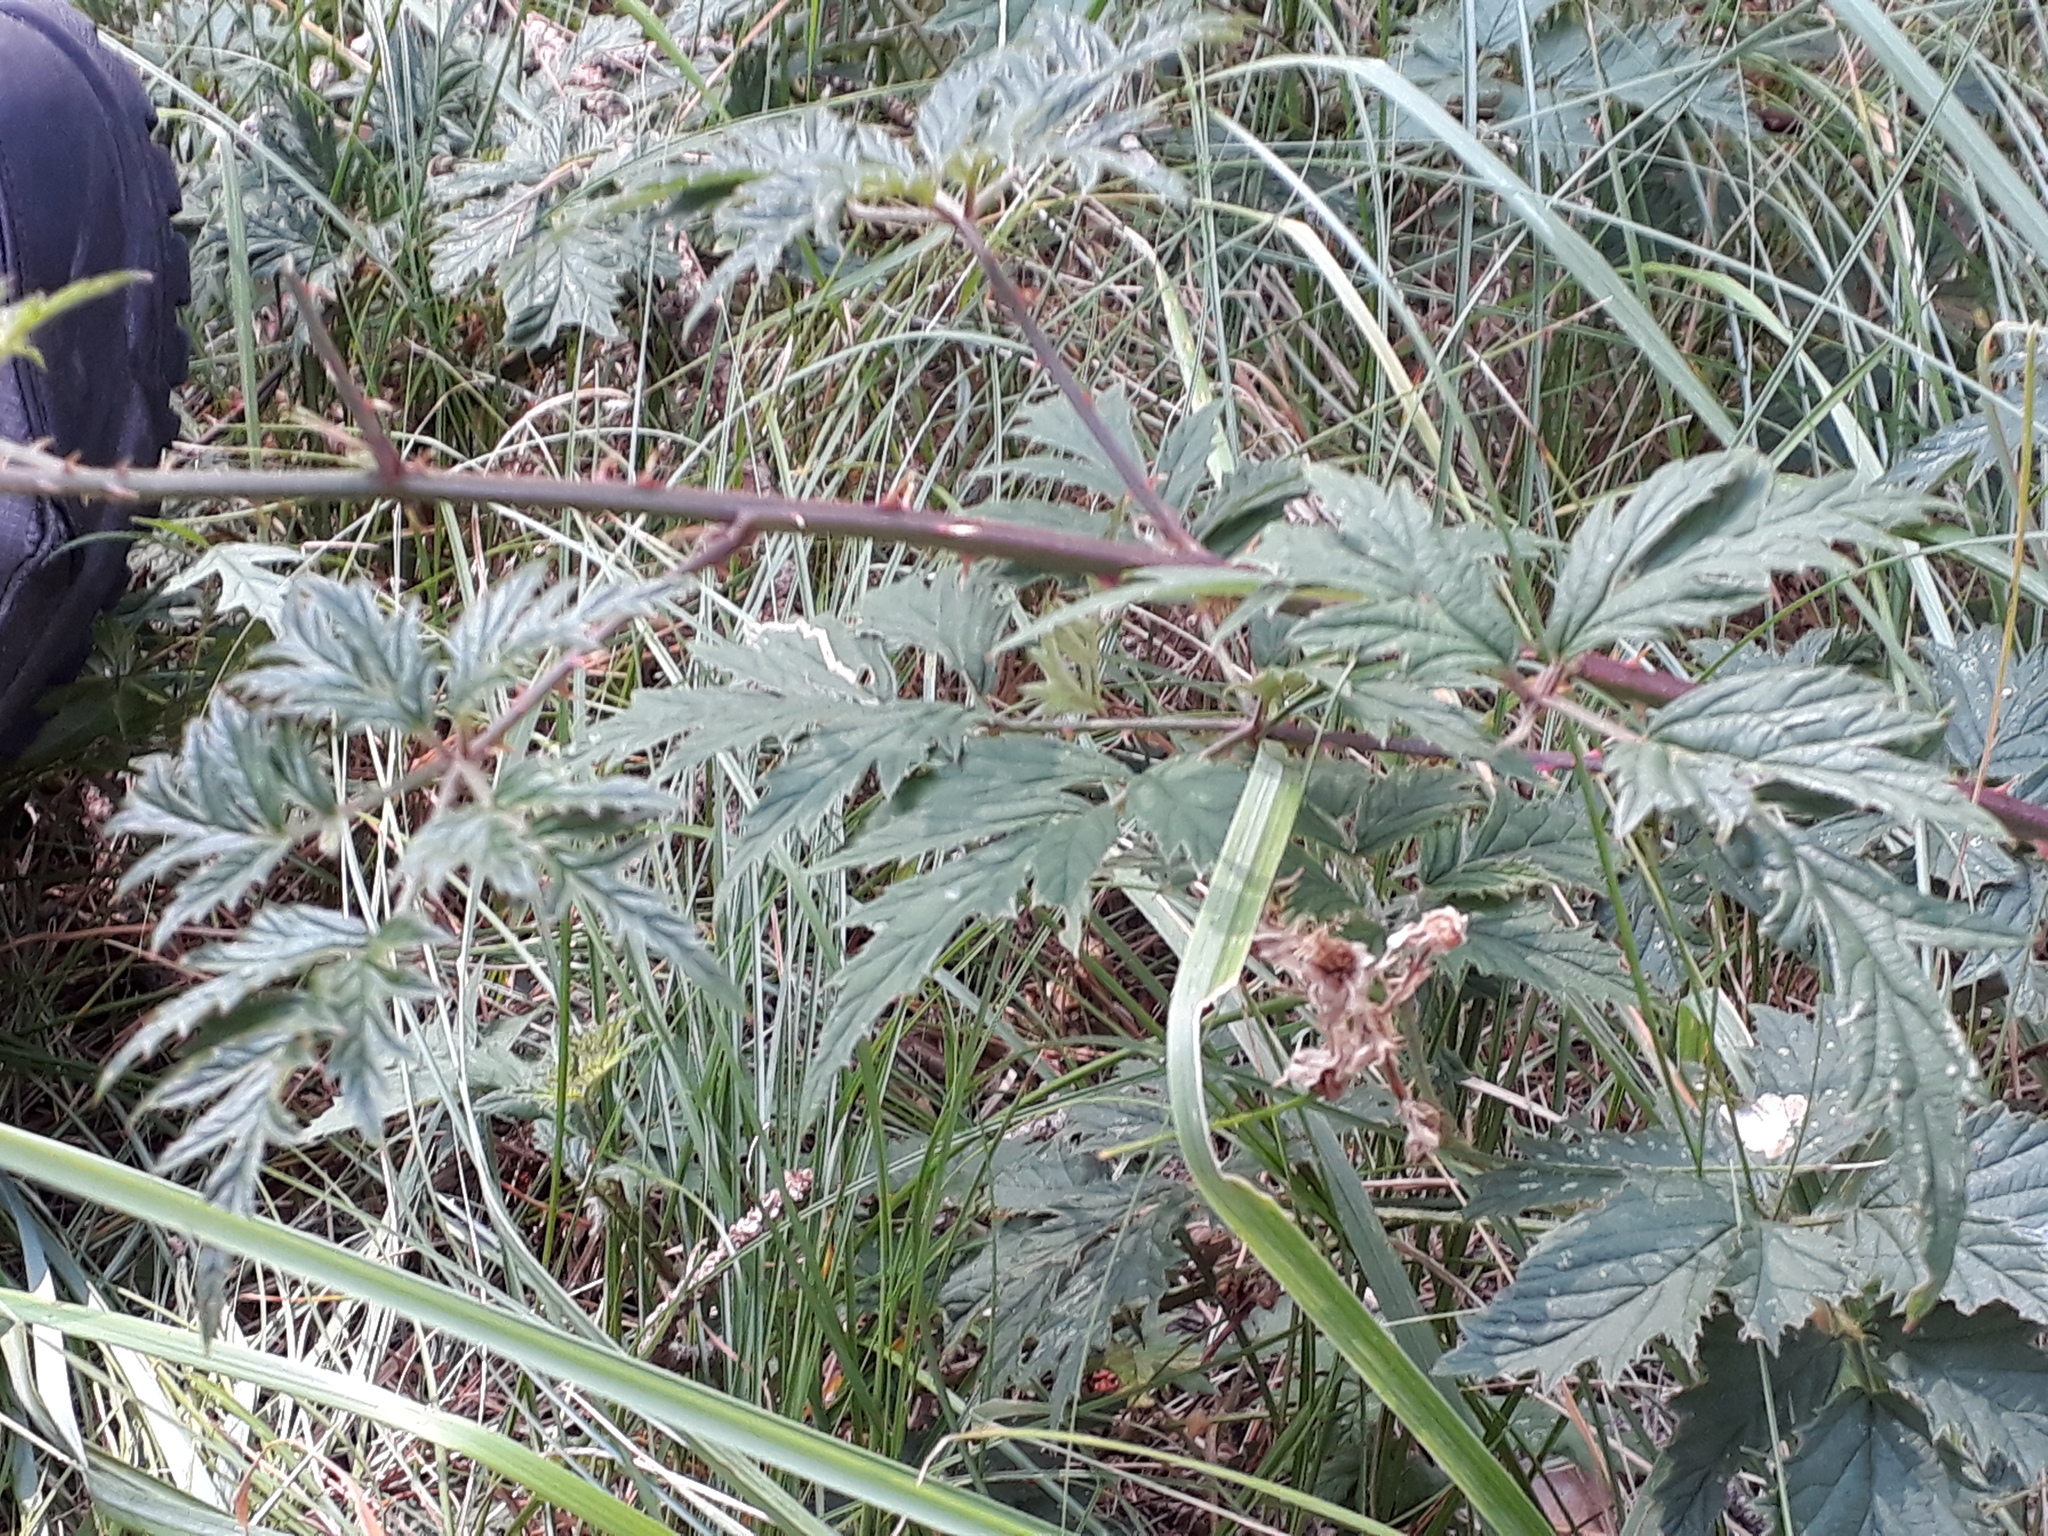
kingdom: Plantae
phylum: Tracheophyta
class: Magnoliopsida
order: Rosales
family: Rosaceae
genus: Rubus
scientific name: Rubus laciniatus
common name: Evergreen blackberry
